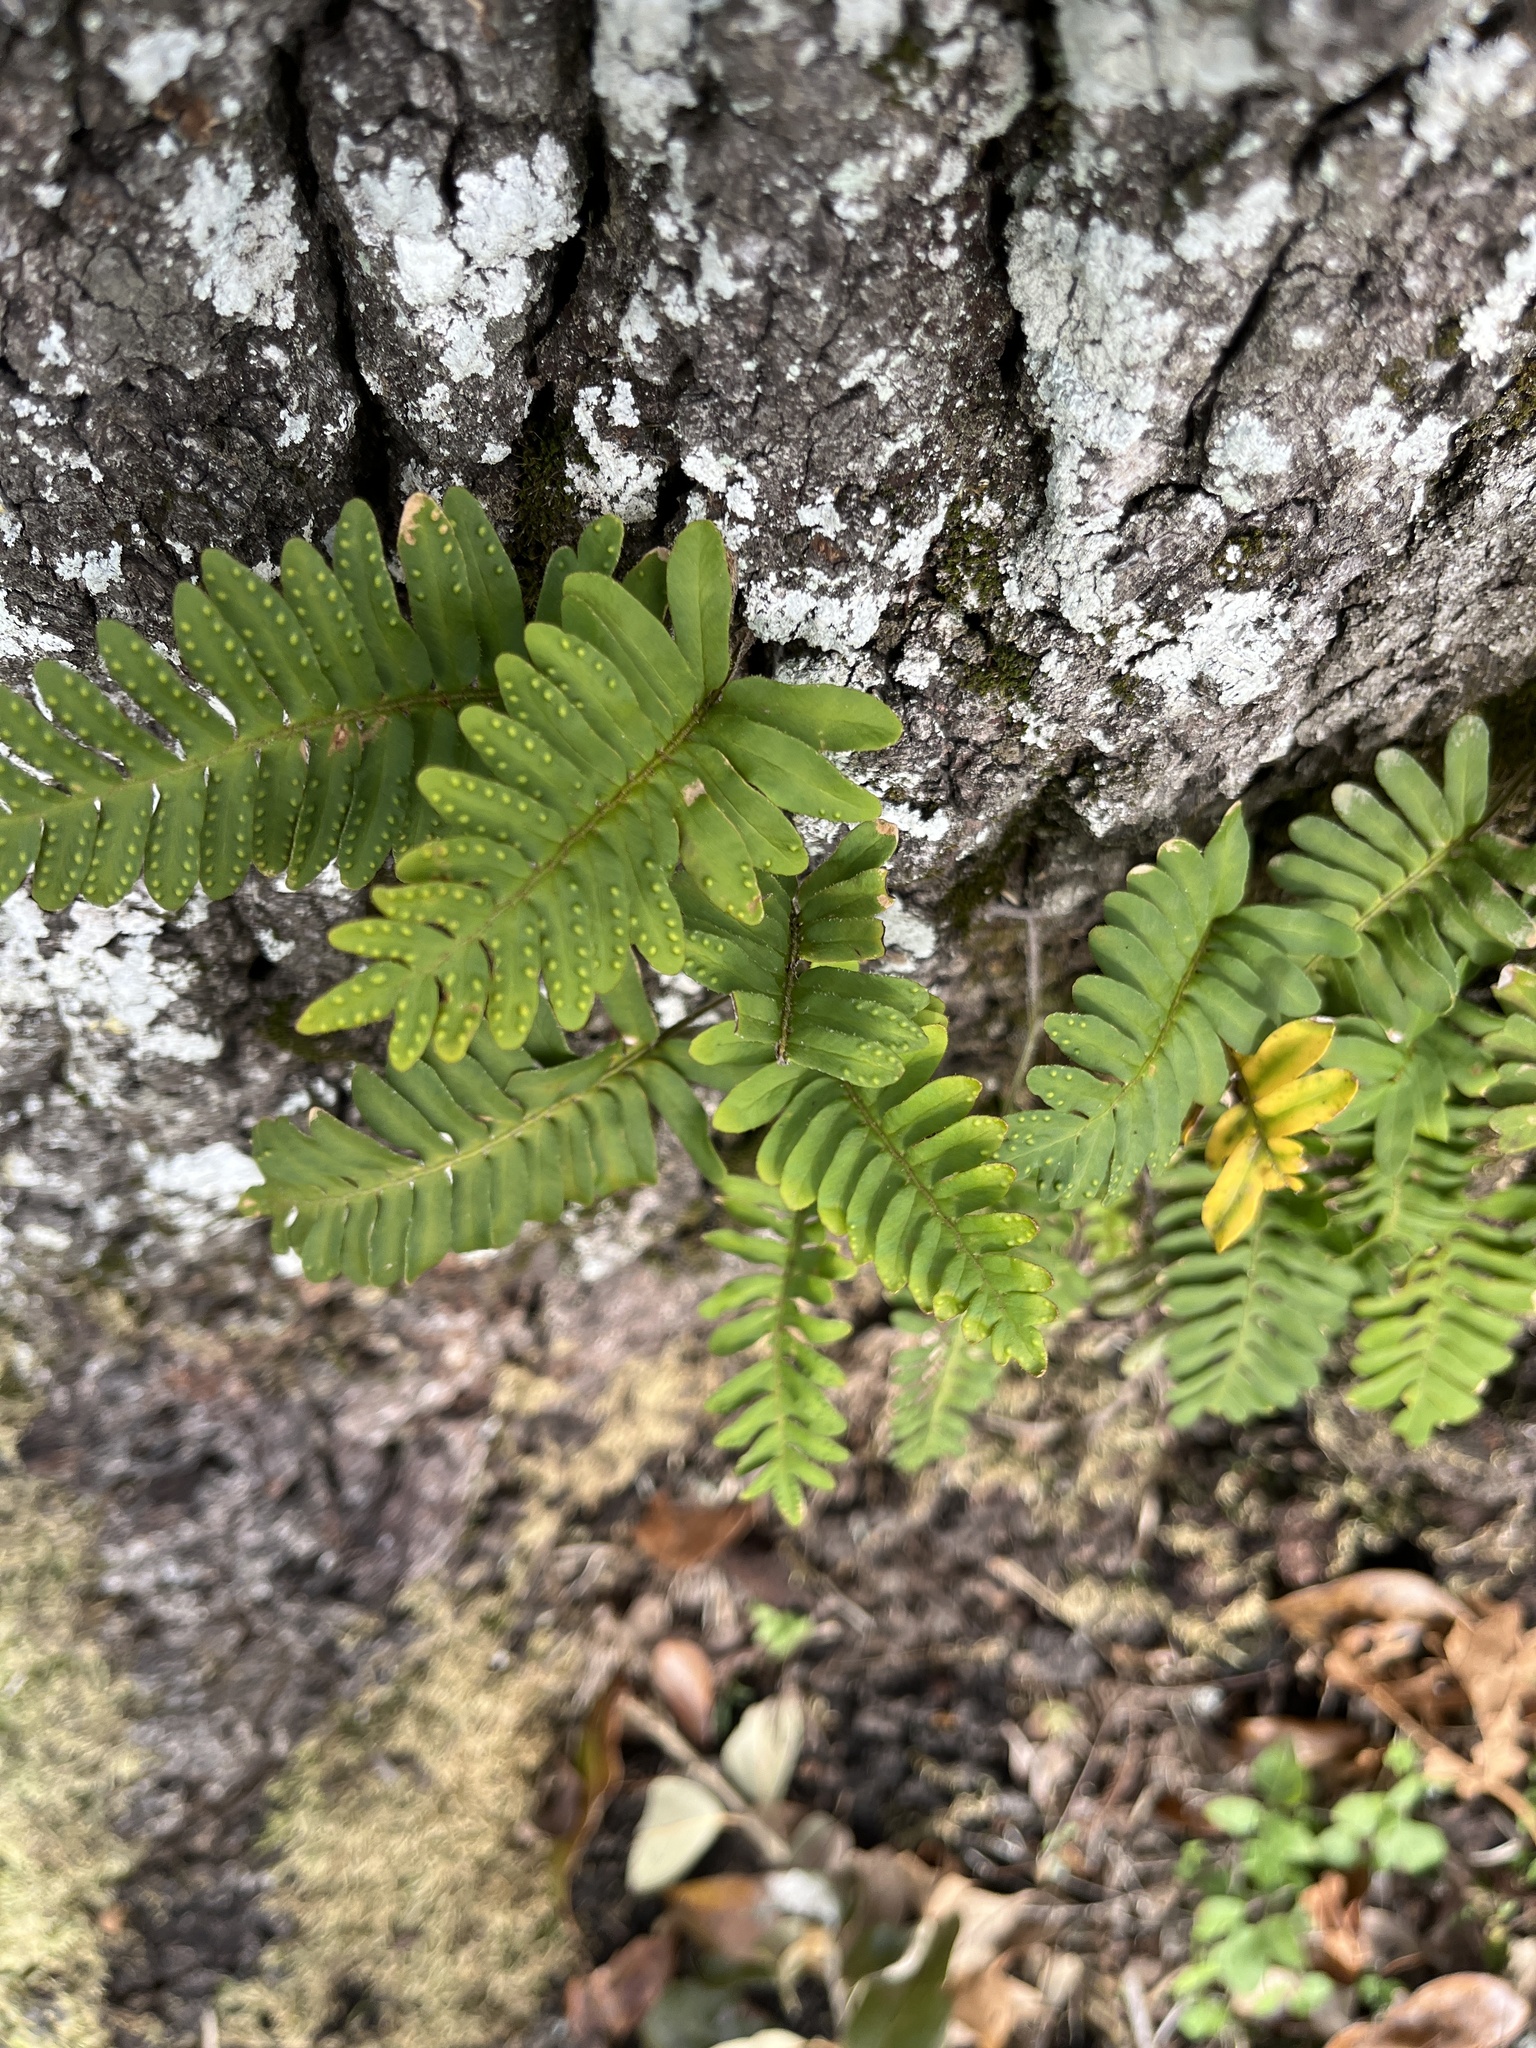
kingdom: Plantae
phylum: Tracheophyta
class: Polypodiopsida
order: Polypodiales
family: Polypodiaceae
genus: Pleopeltis
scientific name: Pleopeltis michauxiana
